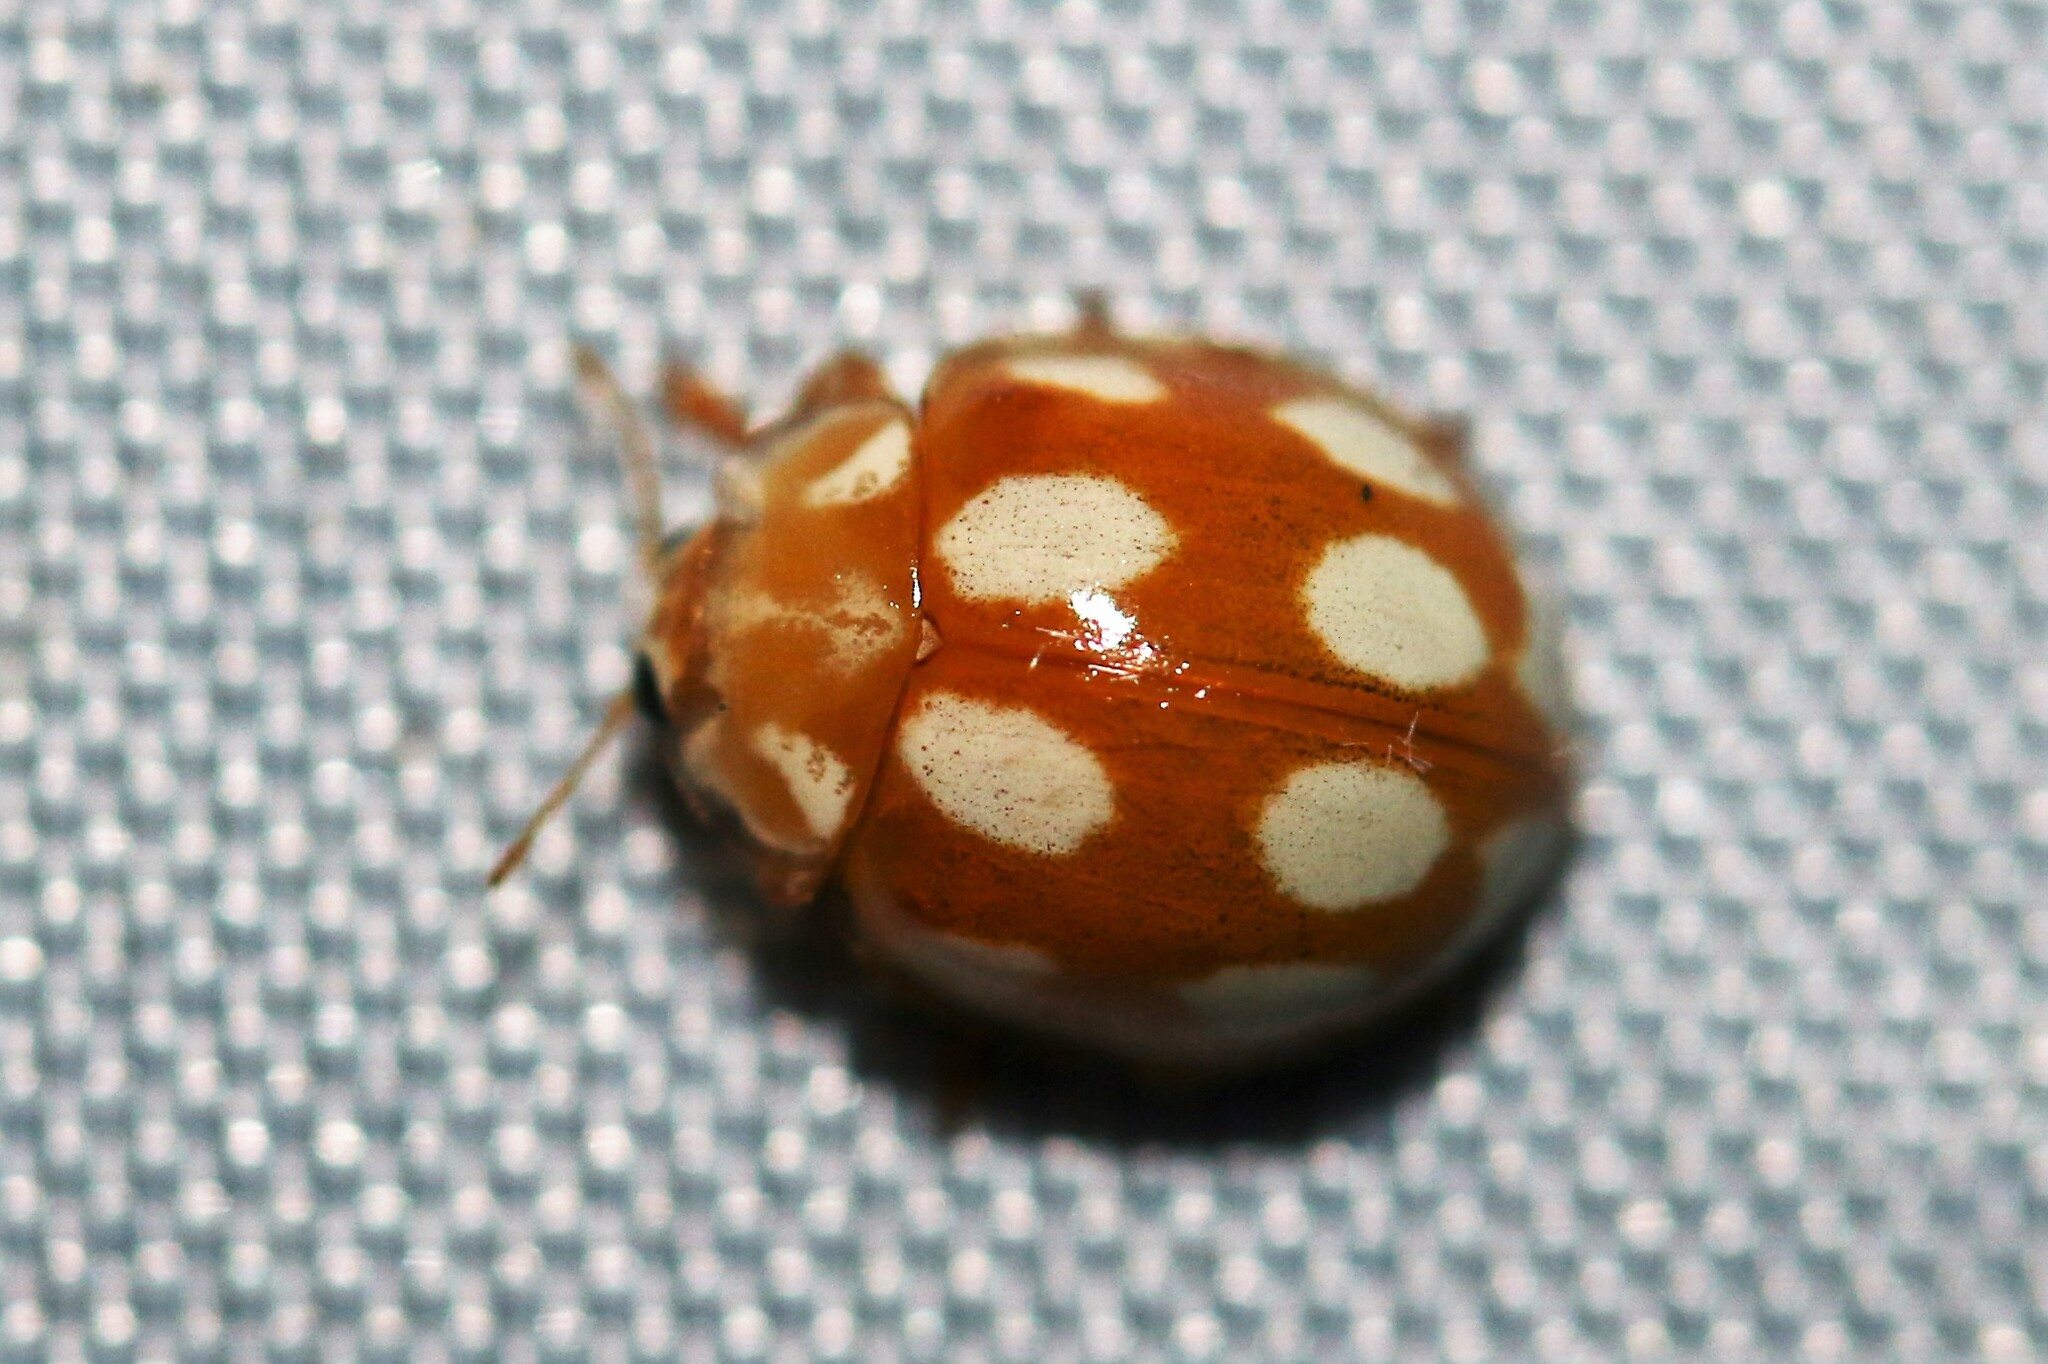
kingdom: Animalia
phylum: Arthropoda
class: Insecta
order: Coleoptera
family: Coccinellidae
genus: Calvia
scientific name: Calvia decemguttata
